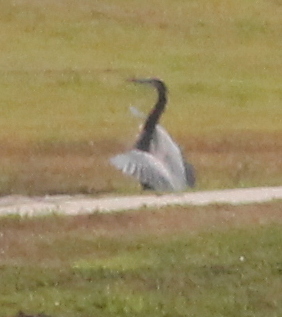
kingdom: Animalia
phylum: Chordata
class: Aves
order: Pelecaniformes
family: Ardeidae
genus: Ardea
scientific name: Ardea herodias
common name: Great blue heron
